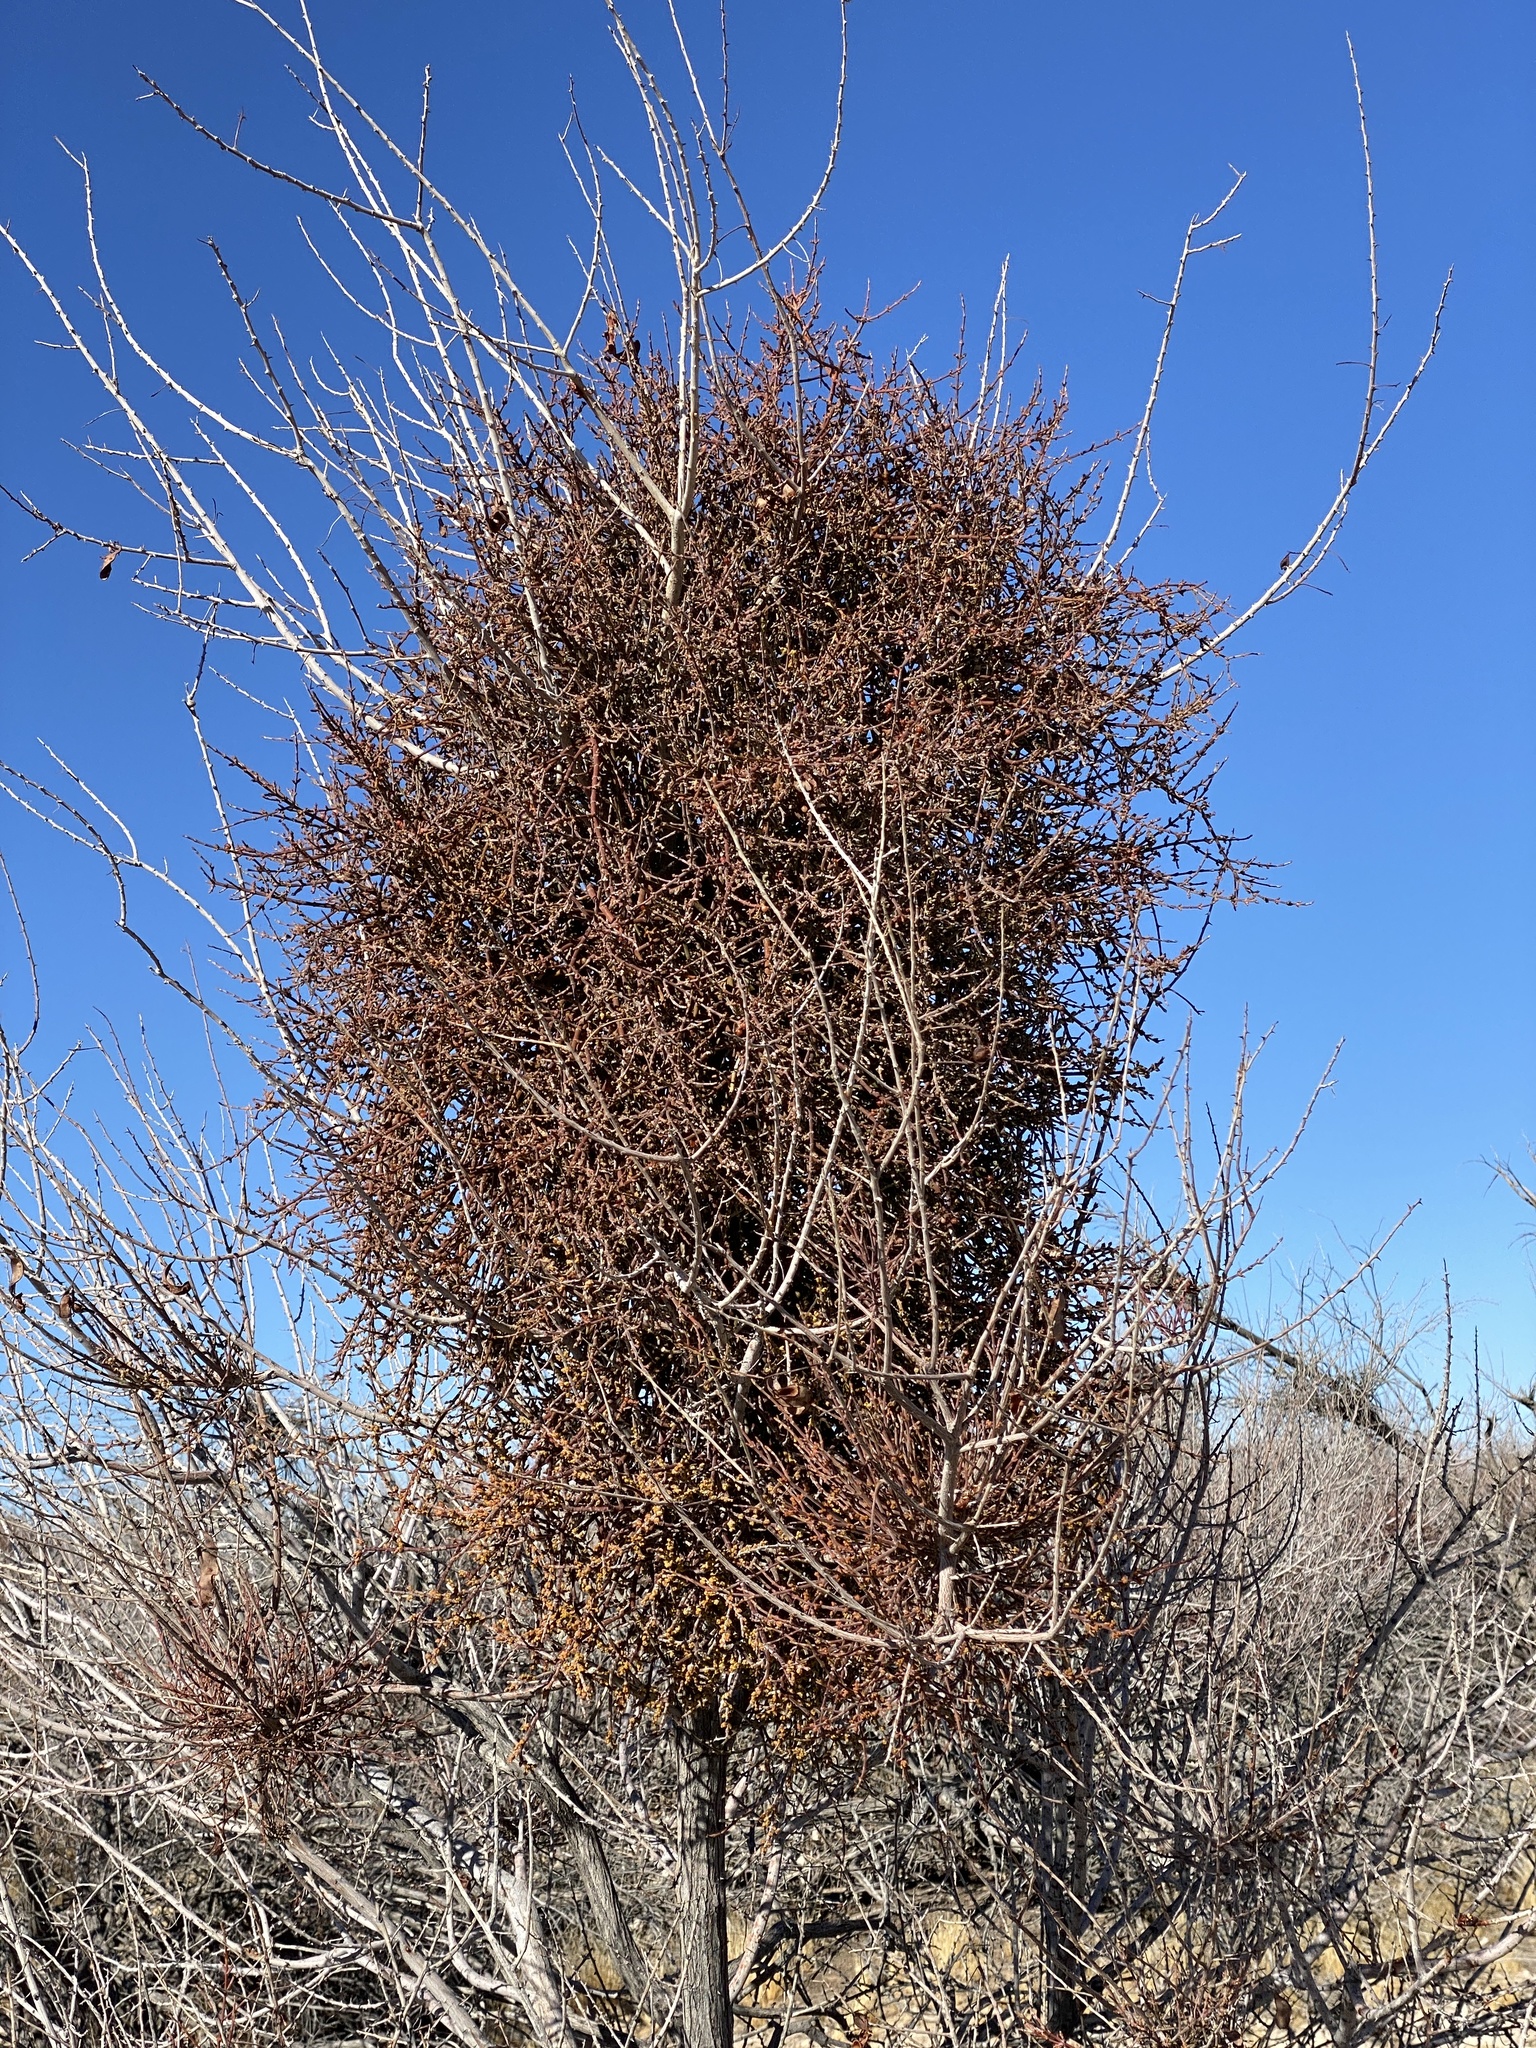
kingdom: Plantae
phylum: Tracheophyta
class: Magnoliopsida
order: Santalales
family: Viscaceae
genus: Phoradendron
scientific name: Phoradendron californicum
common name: Acacia mistletoe
